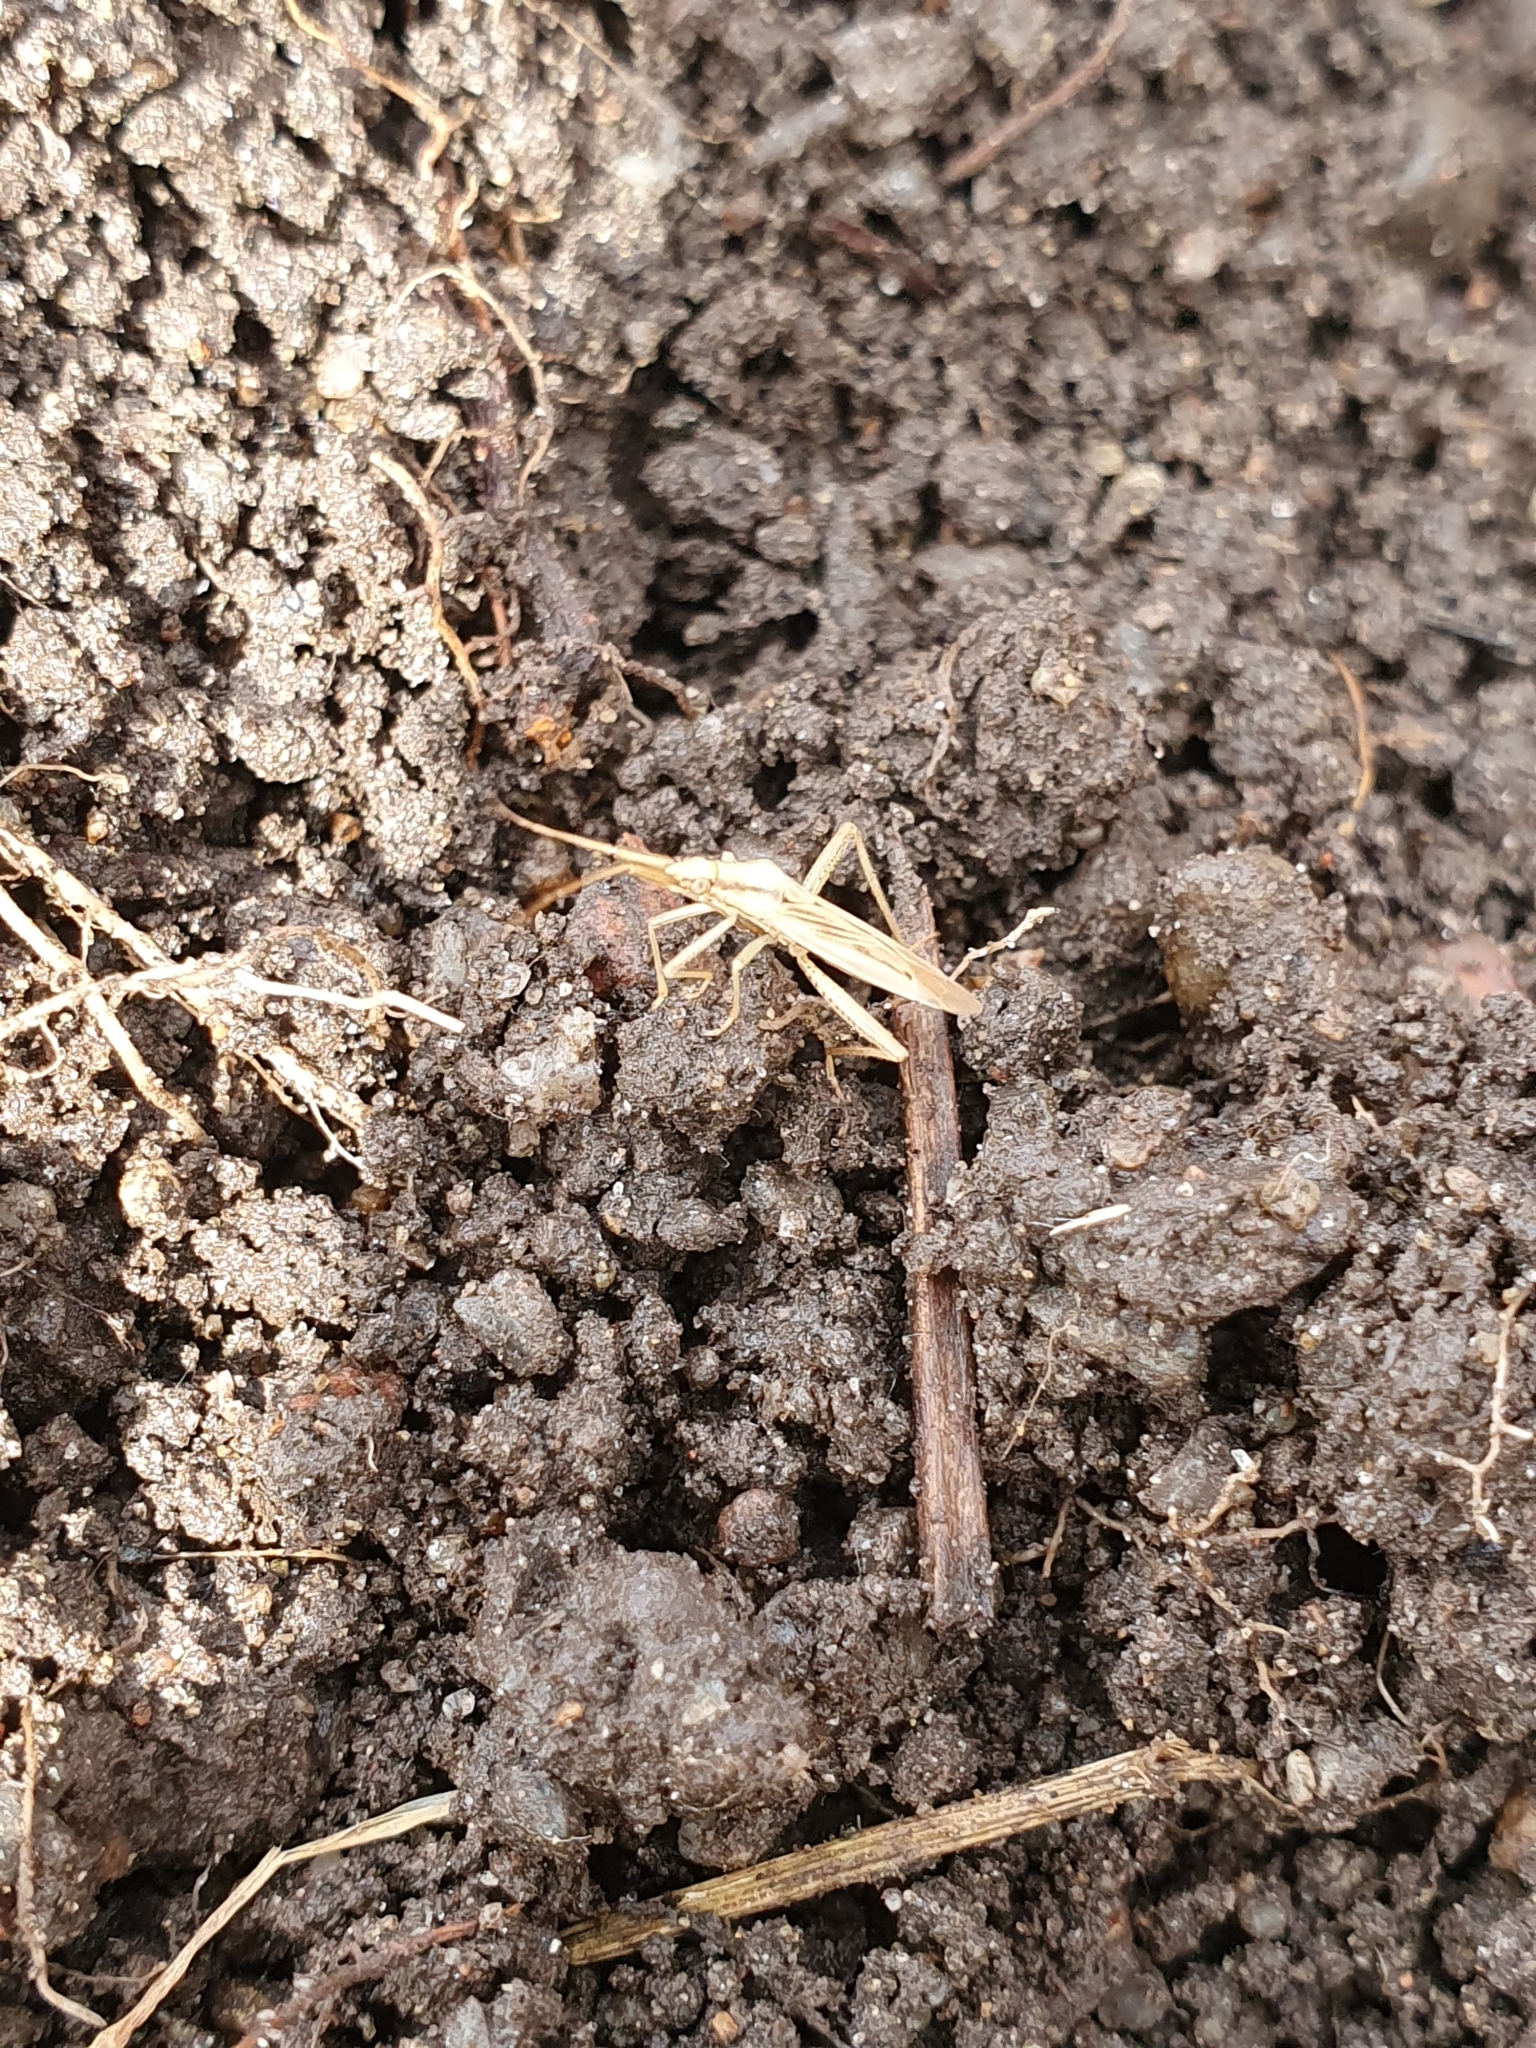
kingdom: Animalia
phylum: Arthropoda
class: Insecta
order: Hemiptera
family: Miridae
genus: Stenodema
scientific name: Stenodema laevigata
